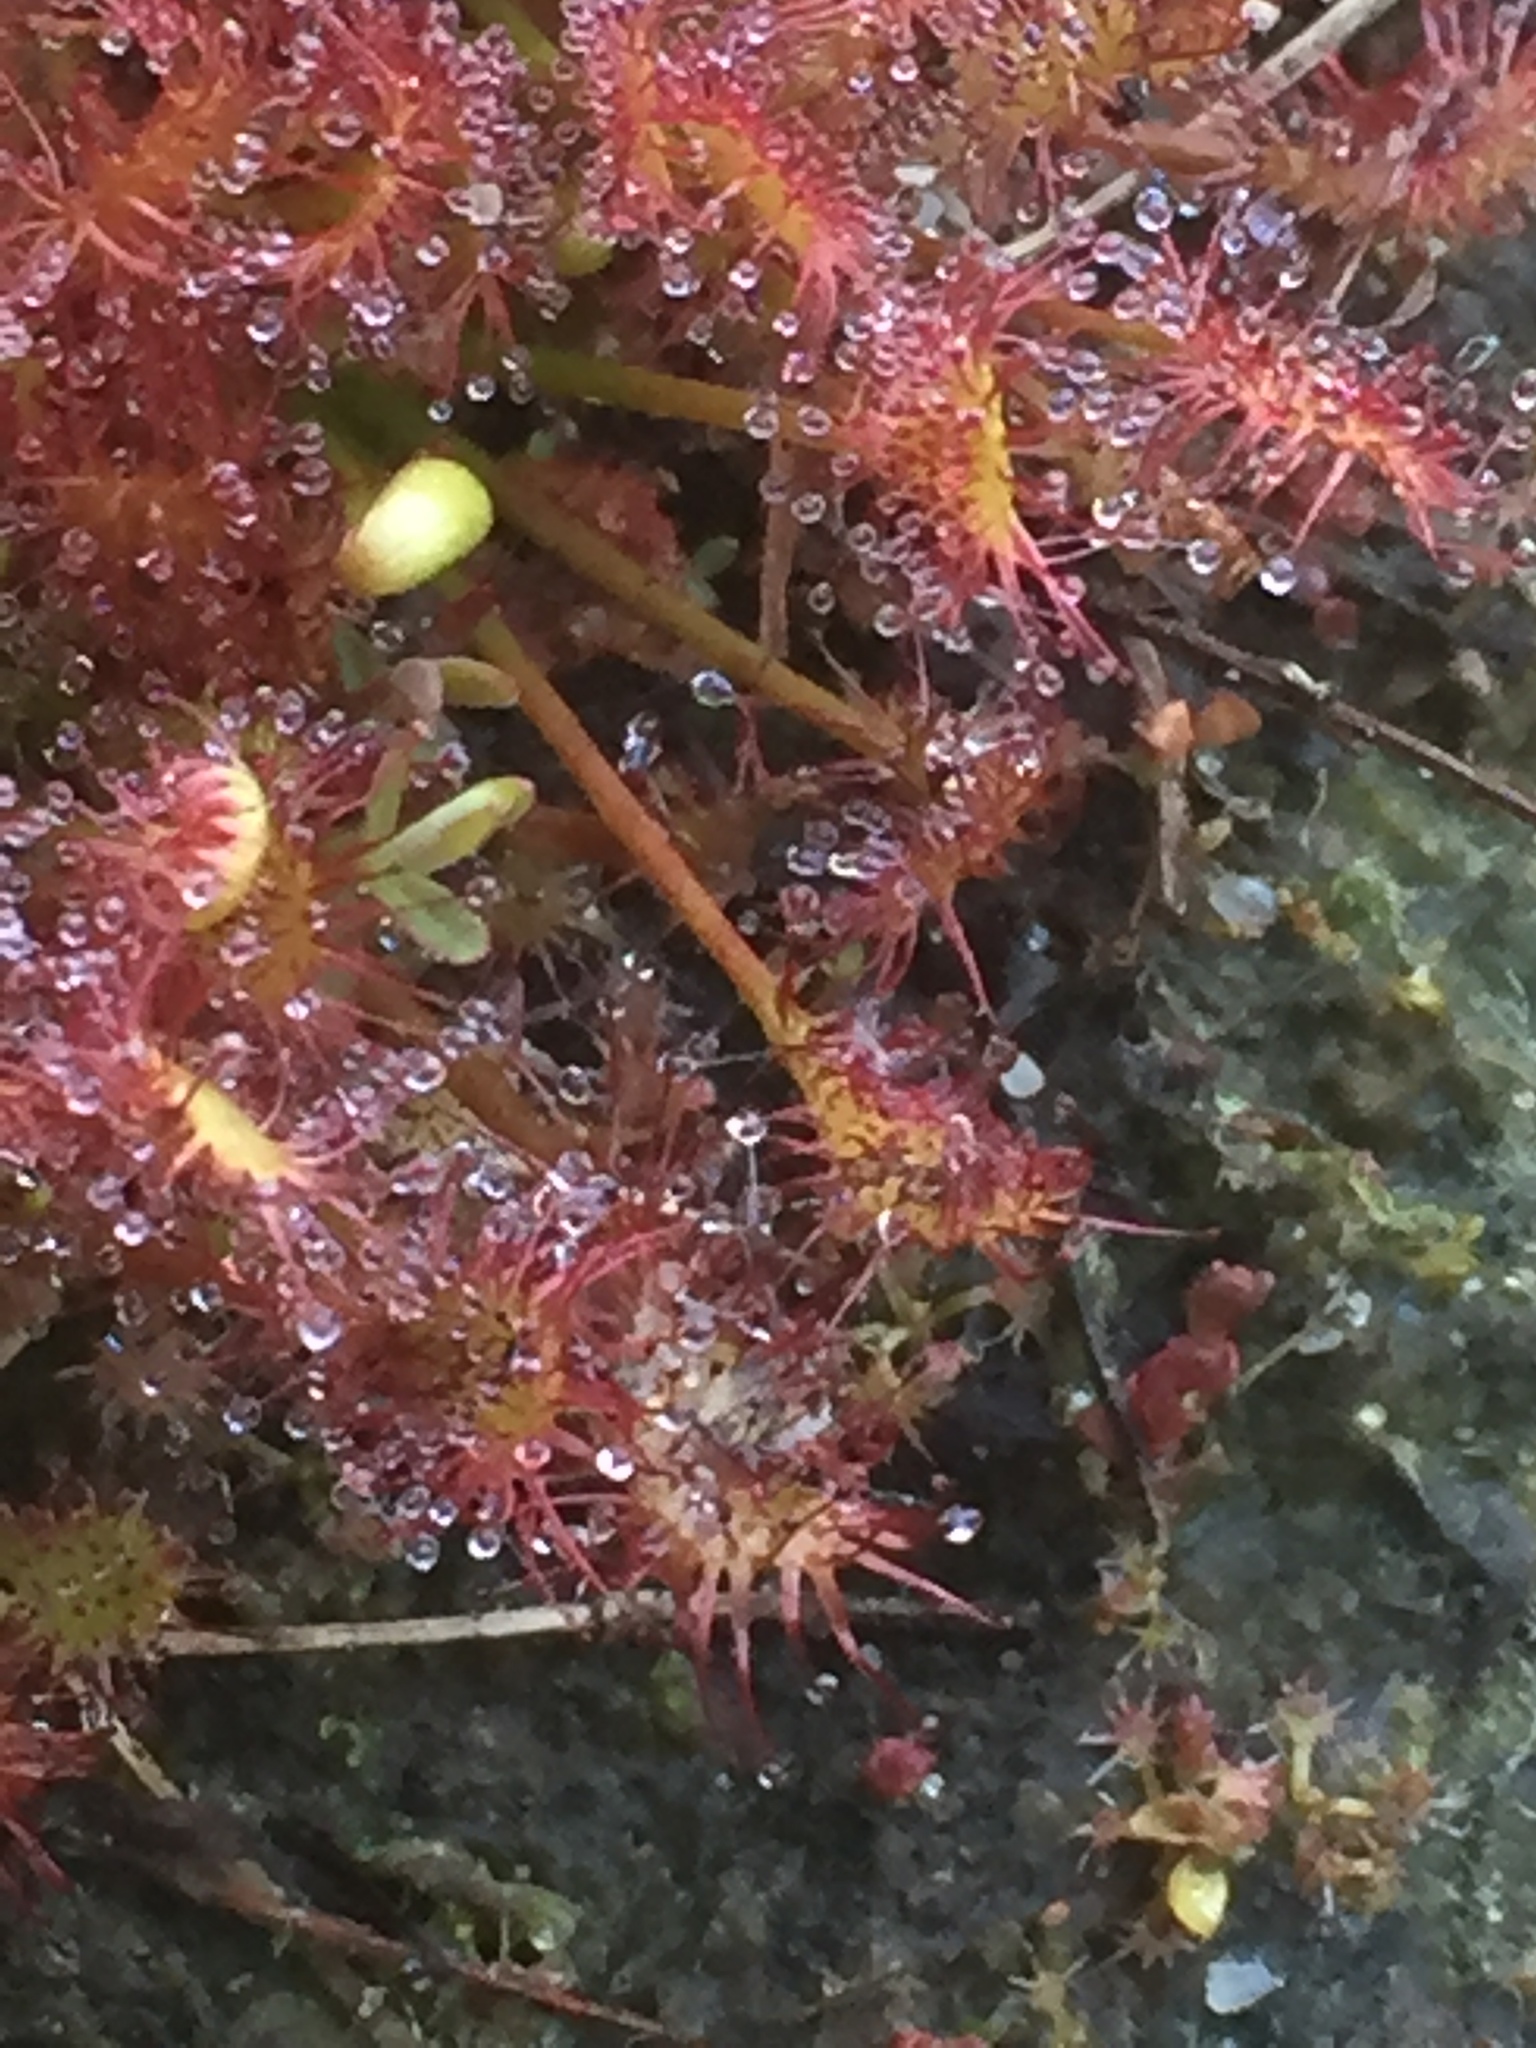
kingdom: Plantae
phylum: Tracheophyta
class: Magnoliopsida
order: Caryophyllales
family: Droseraceae
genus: Drosera
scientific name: Drosera intermedia
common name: Oblong-leaved sundew
